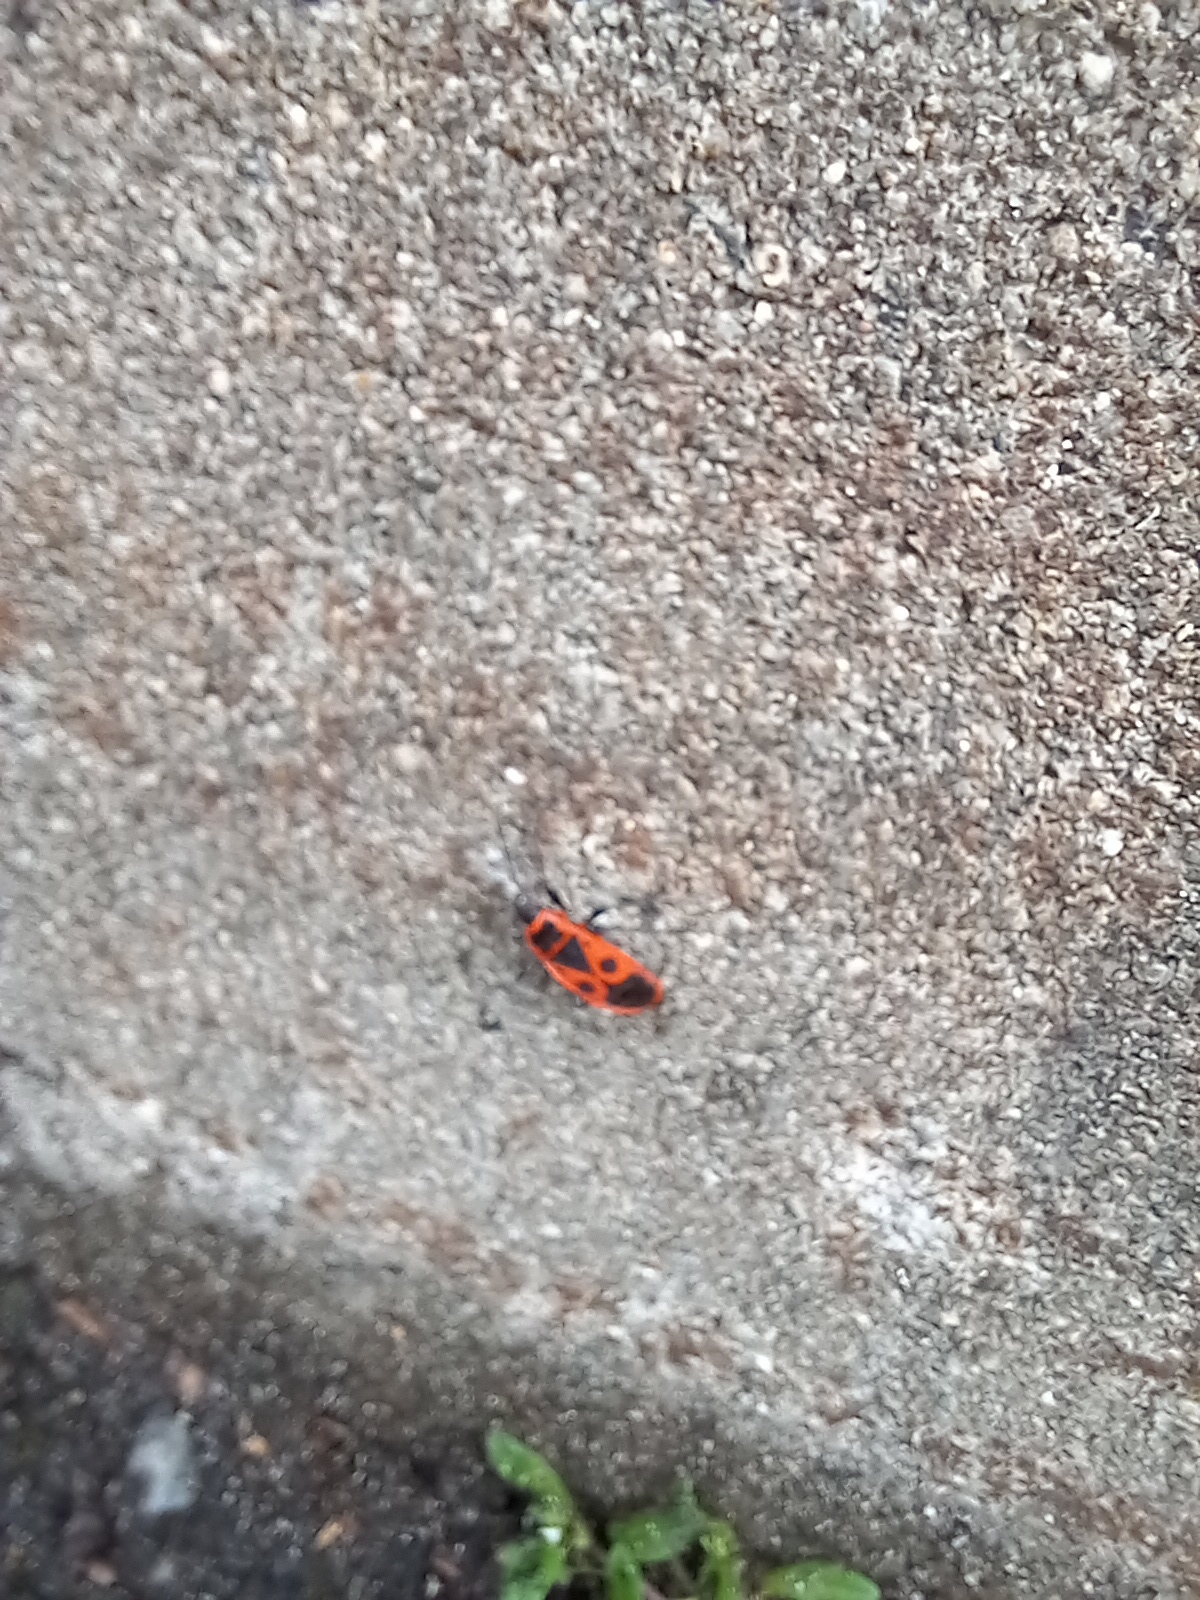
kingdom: Animalia
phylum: Arthropoda
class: Insecta
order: Hemiptera
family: Pyrrhocoridae
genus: Pyrrhocoris
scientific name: Pyrrhocoris apterus
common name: Firebug
